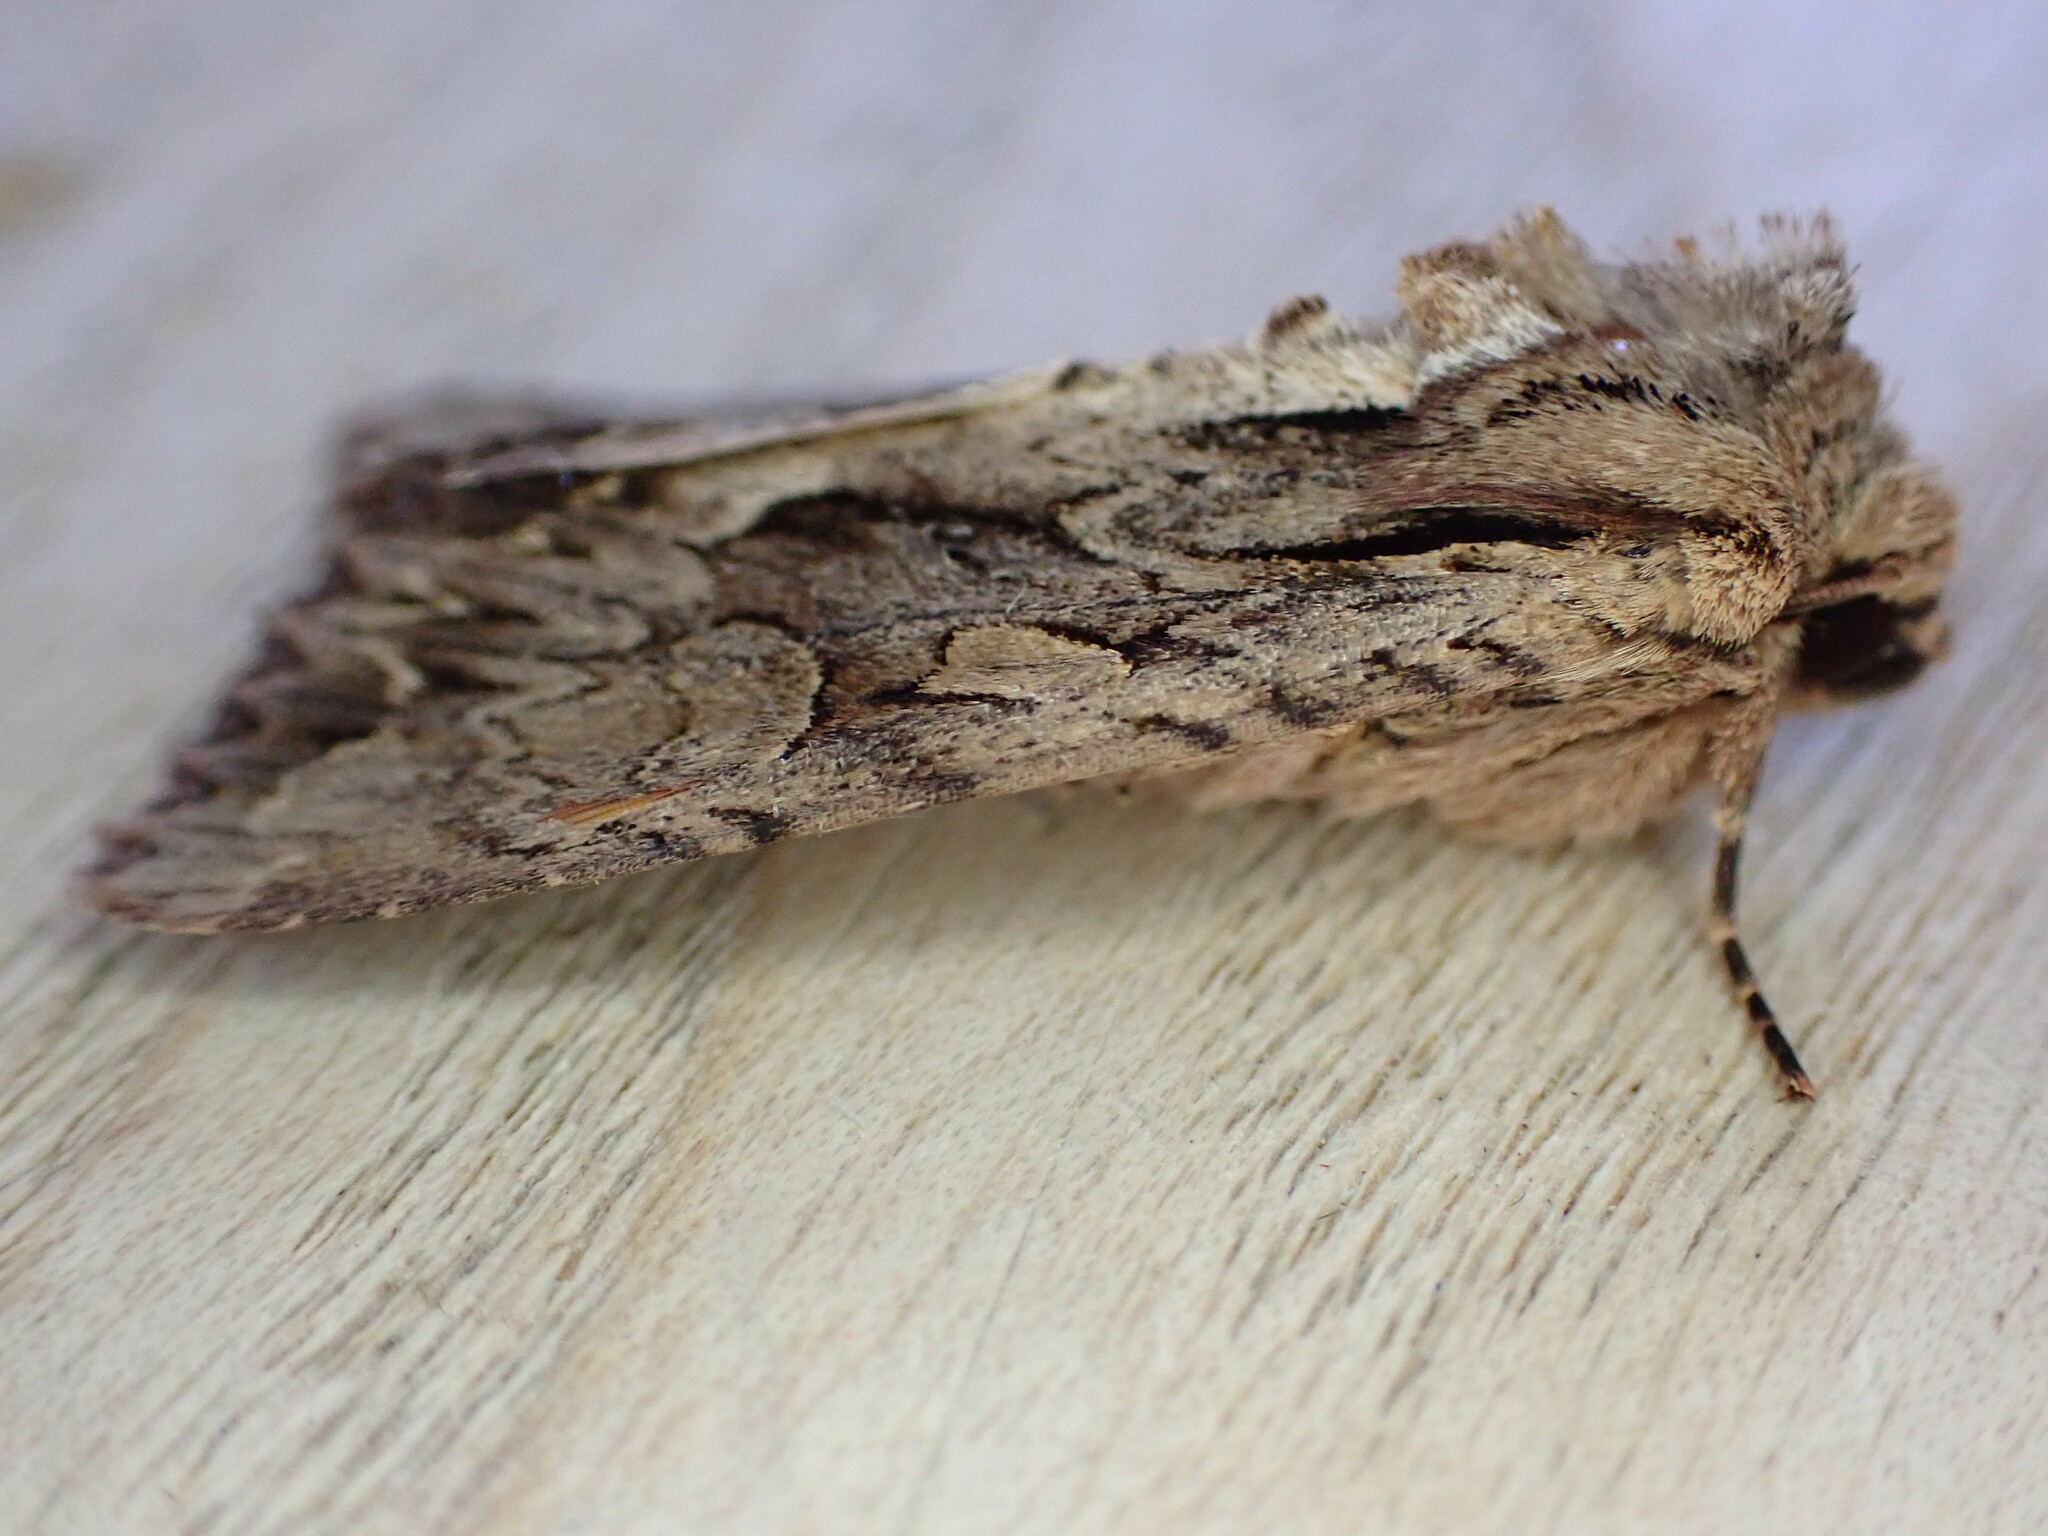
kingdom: Animalia
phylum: Arthropoda
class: Insecta
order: Lepidoptera
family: Noctuidae
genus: Apamea
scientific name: Apamea monoglypha
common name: Dark arches
